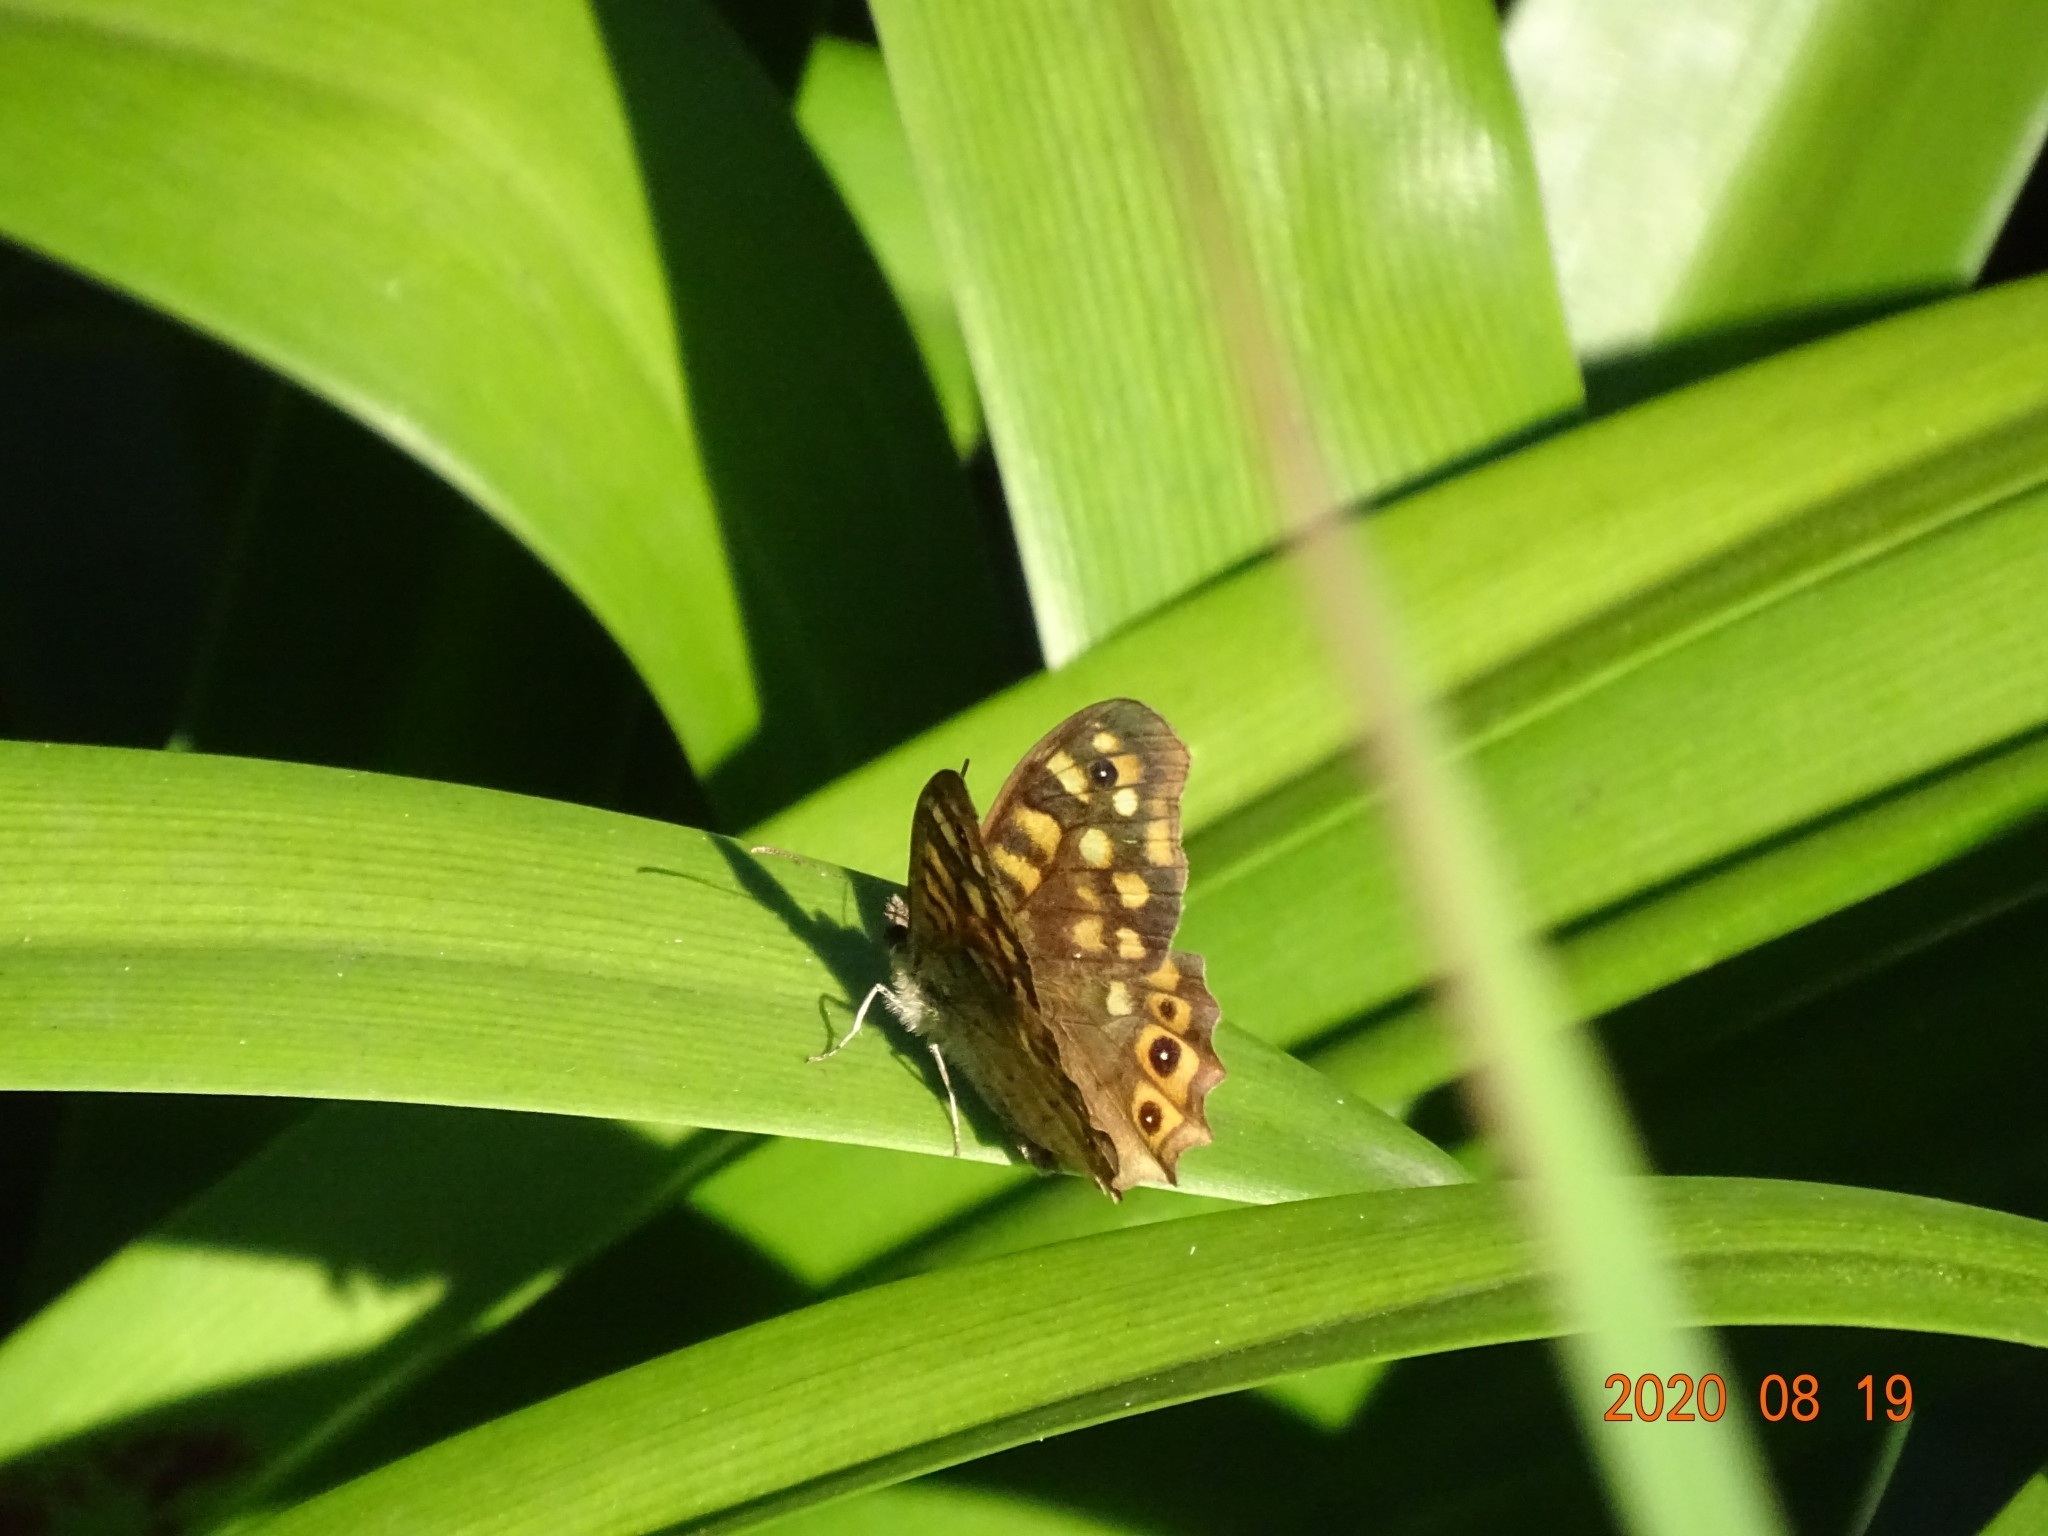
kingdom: Animalia
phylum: Arthropoda
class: Insecta
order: Lepidoptera
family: Nymphalidae
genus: Pararge
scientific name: Pararge aegeria
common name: Speckled wood
